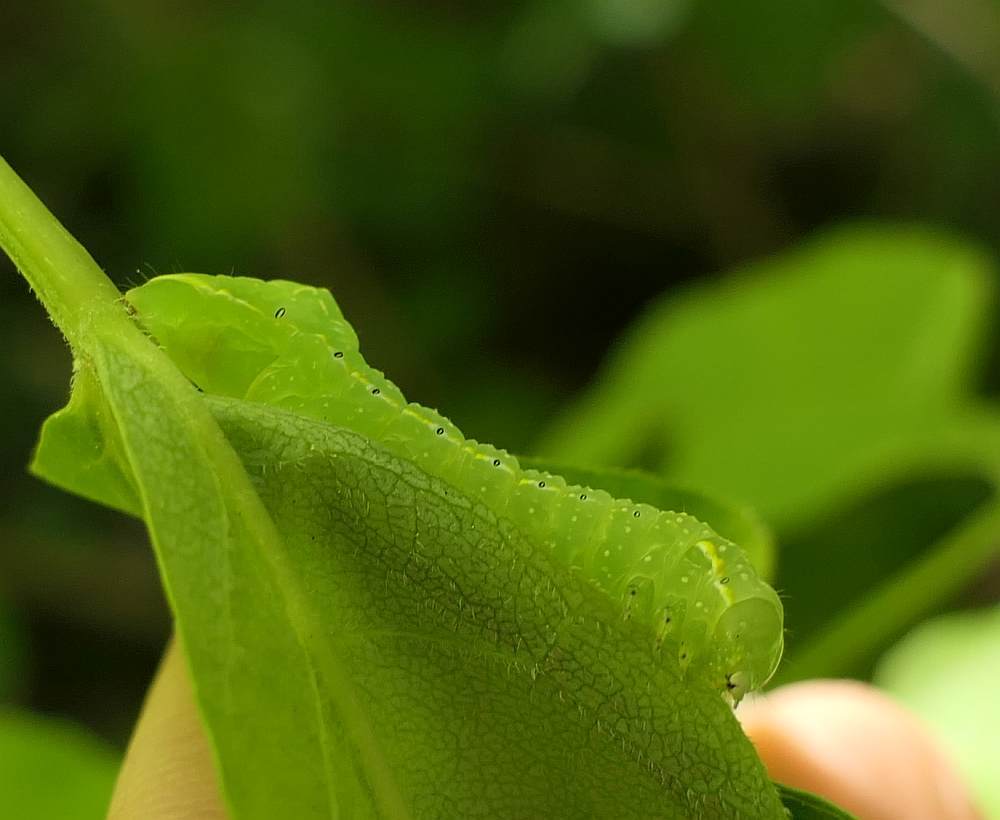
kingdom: Animalia
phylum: Arthropoda
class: Insecta
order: Lepidoptera
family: Noctuidae
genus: Amphipyra
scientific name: Amphipyra pyramidoides
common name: American copper underwing
